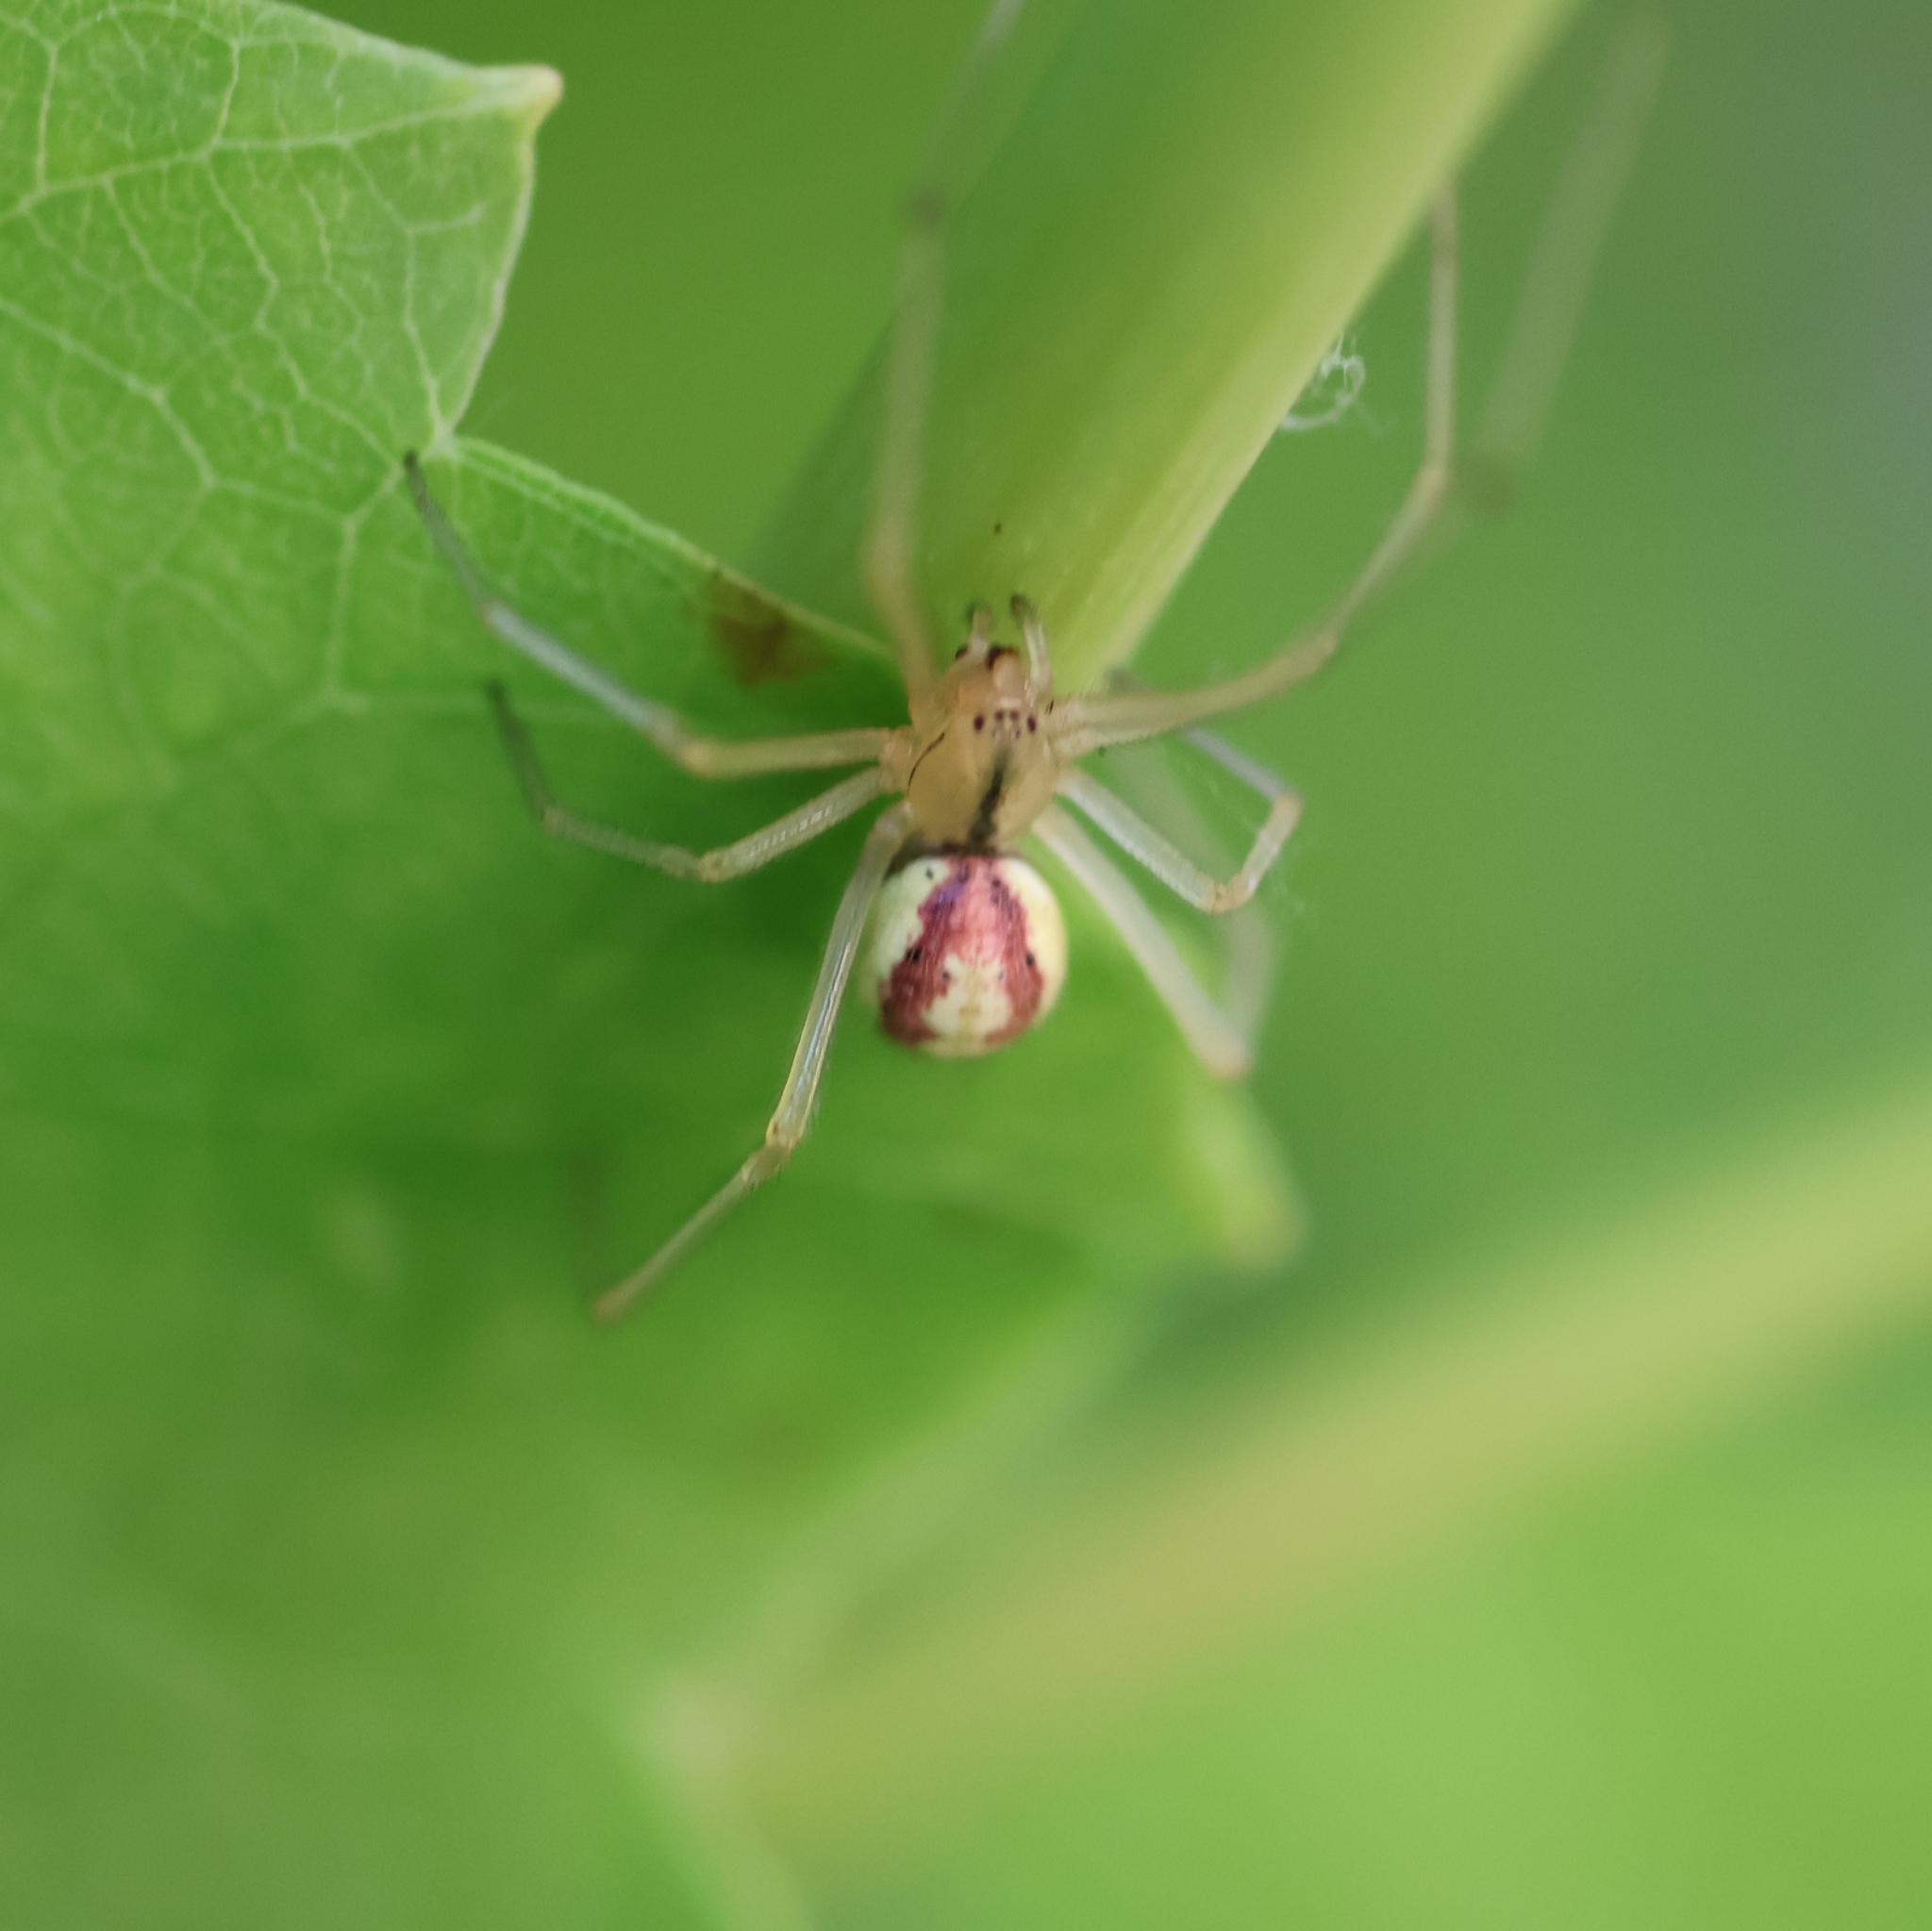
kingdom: Animalia
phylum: Arthropoda
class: Arachnida
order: Araneae
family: Theridiidae
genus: Enoplognatha
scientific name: Enoplognatha ovata
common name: Common candy-striped spider
